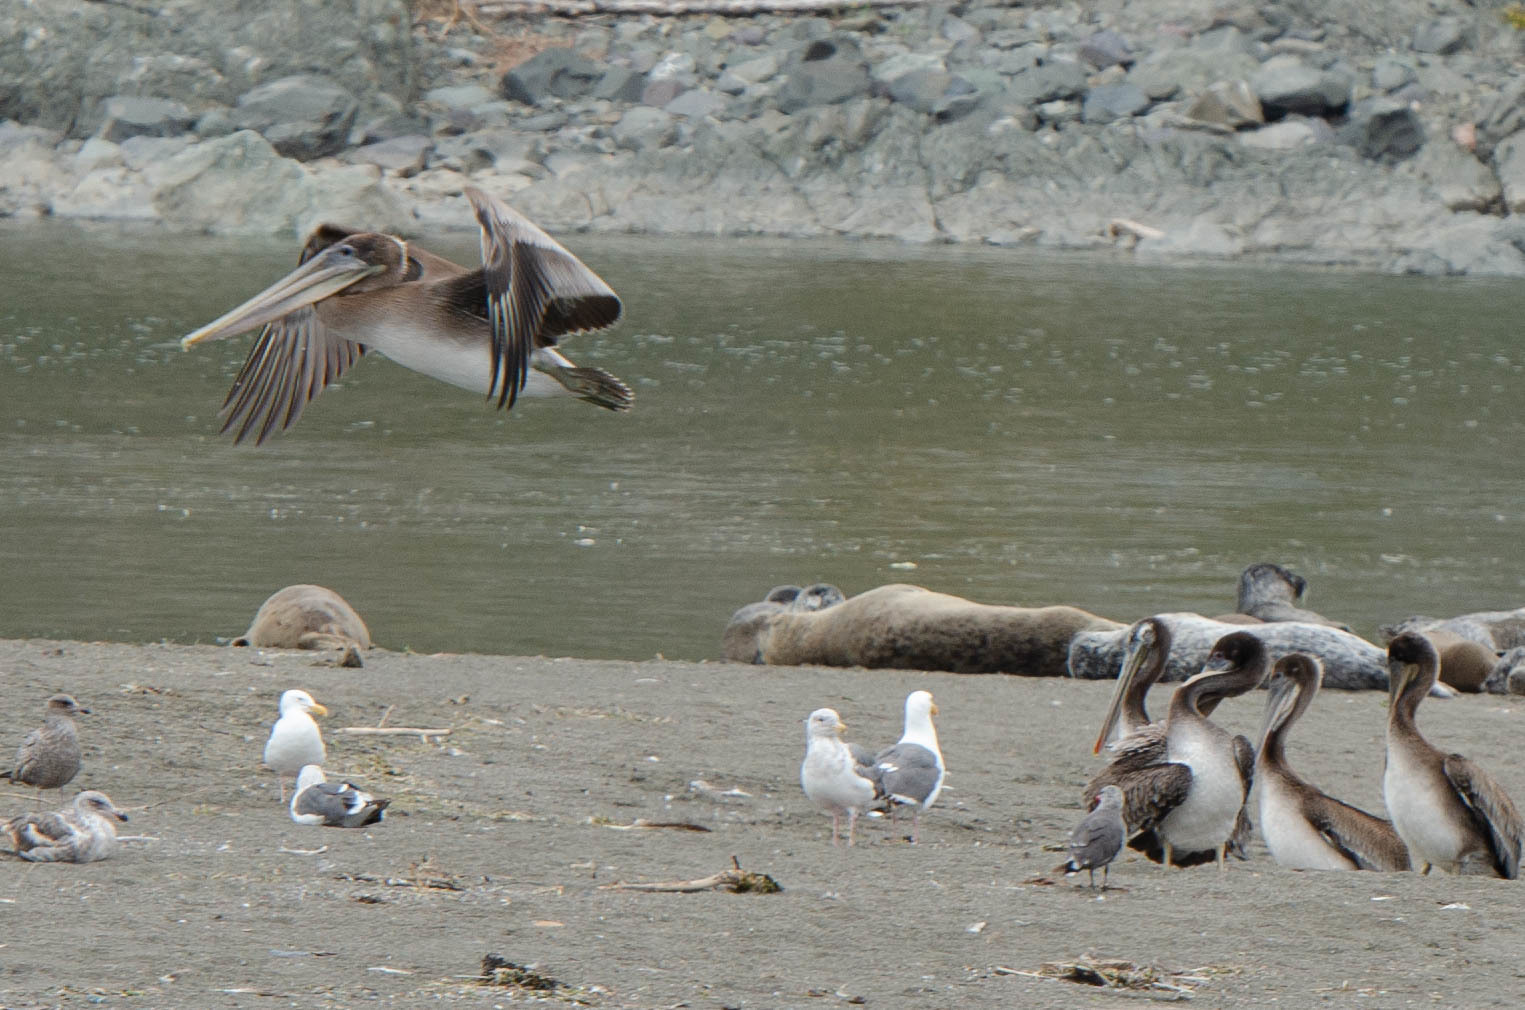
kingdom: Animalia
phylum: Chordata
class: Aves
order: Pelecaniformes
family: Pelecanidae
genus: Pelecanus
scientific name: Pelecanus occidentalis
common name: Brown pelican
